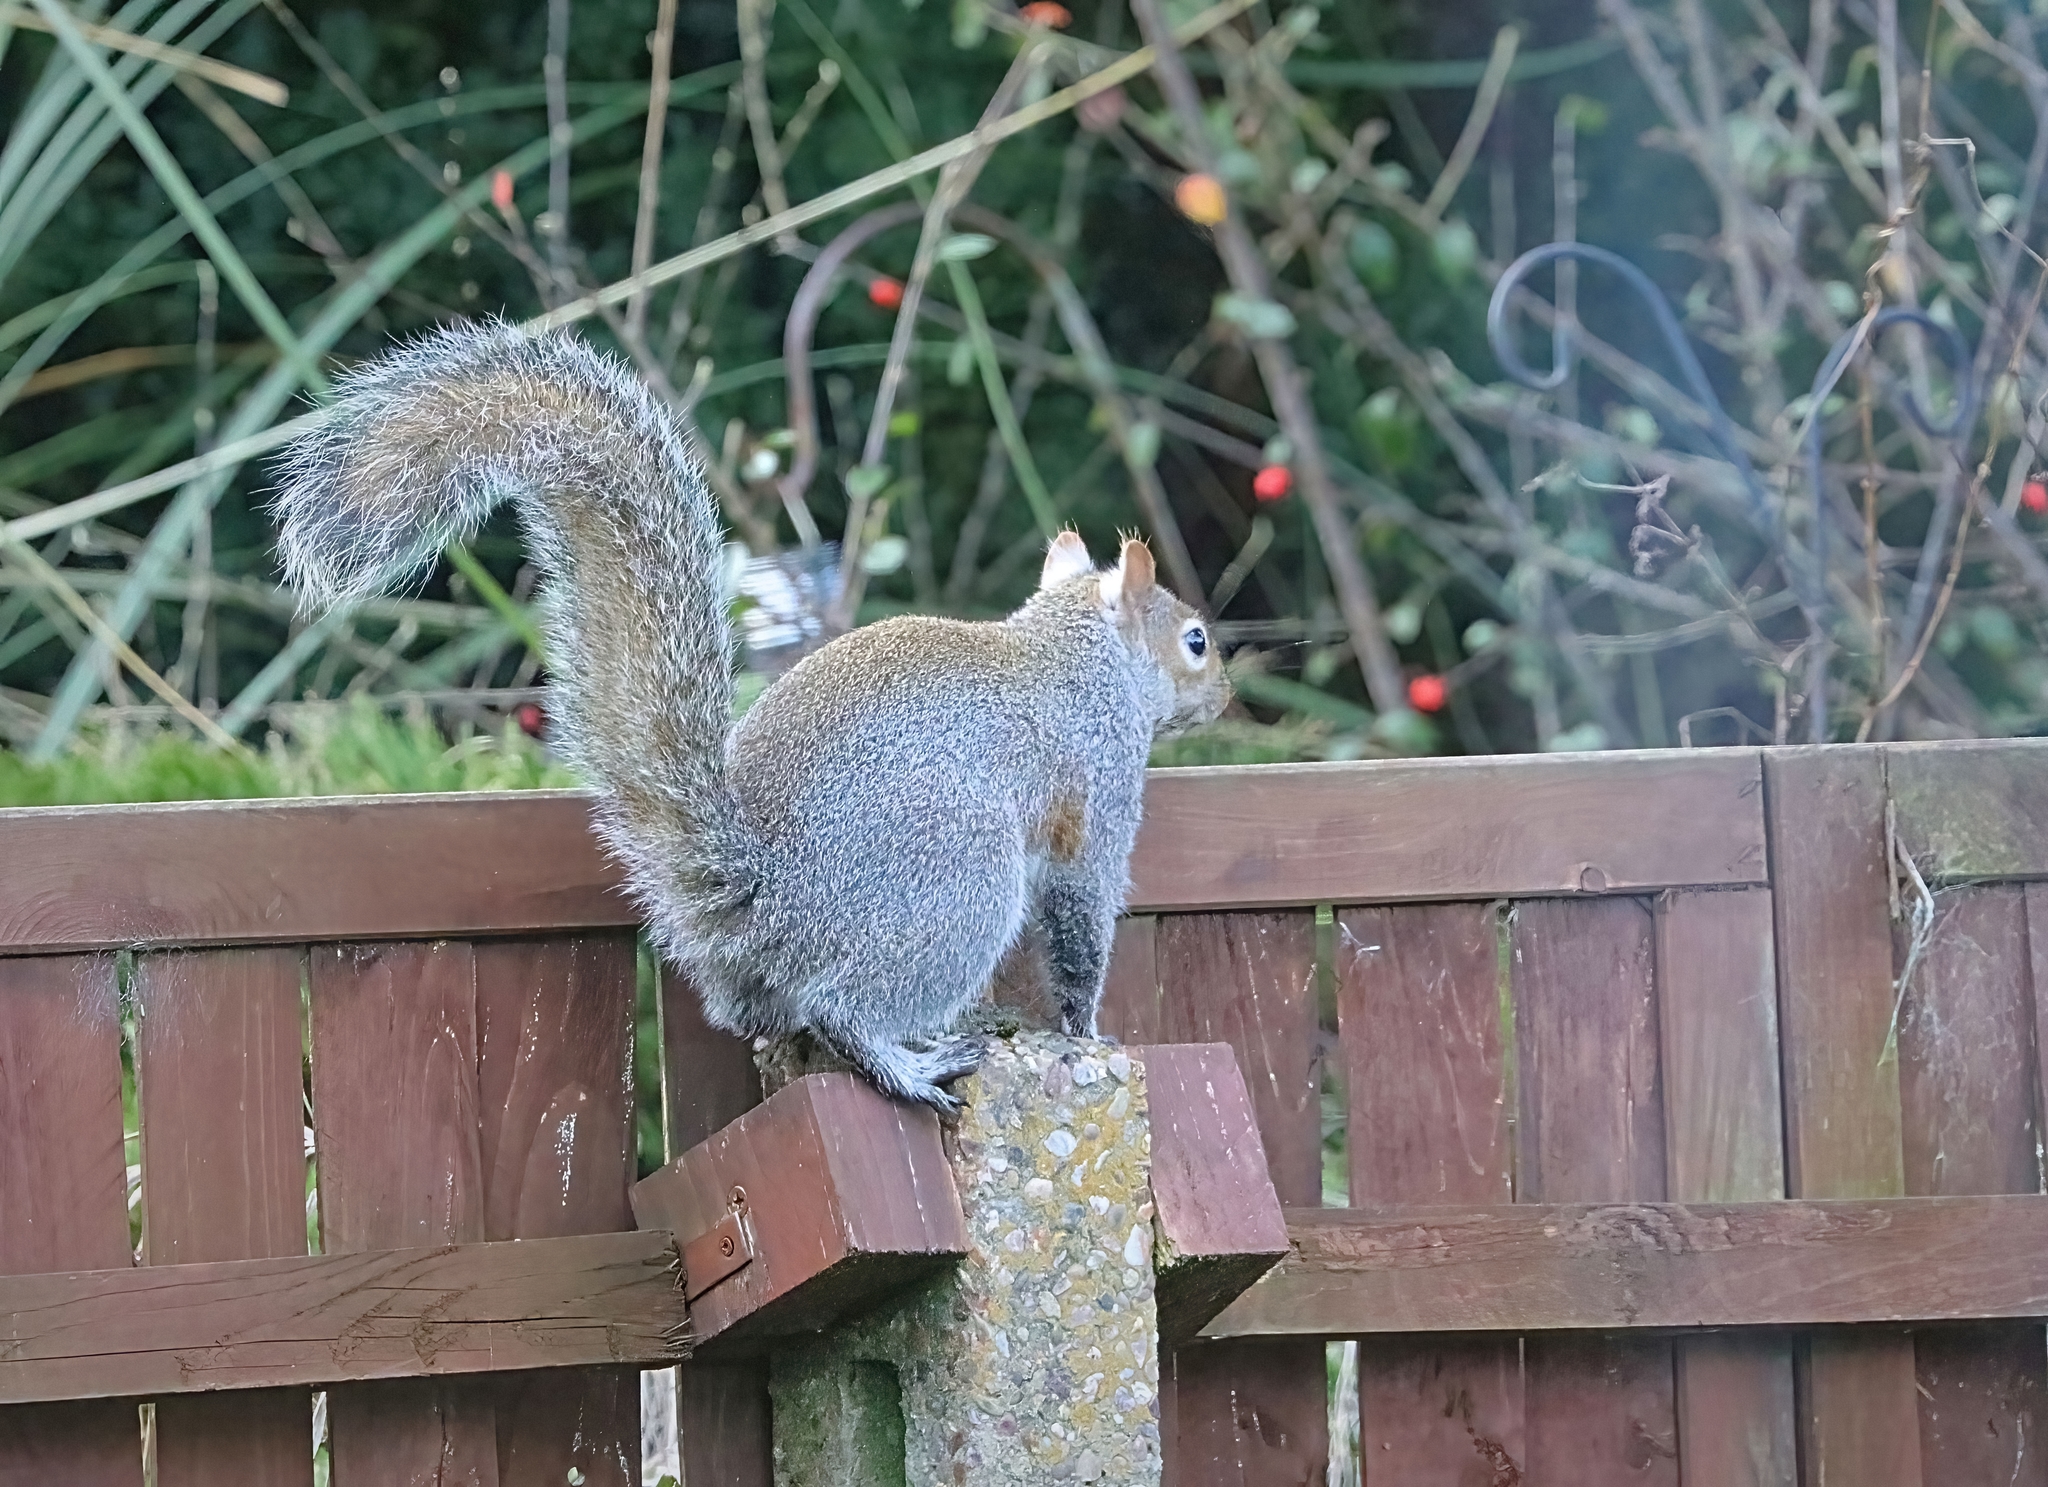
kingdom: Animalia
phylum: Chordata
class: Mammalia
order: Rodentia
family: Sciuridae
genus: Sciurus
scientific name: Sciurus carolinensis
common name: Eastern gray squirrel
